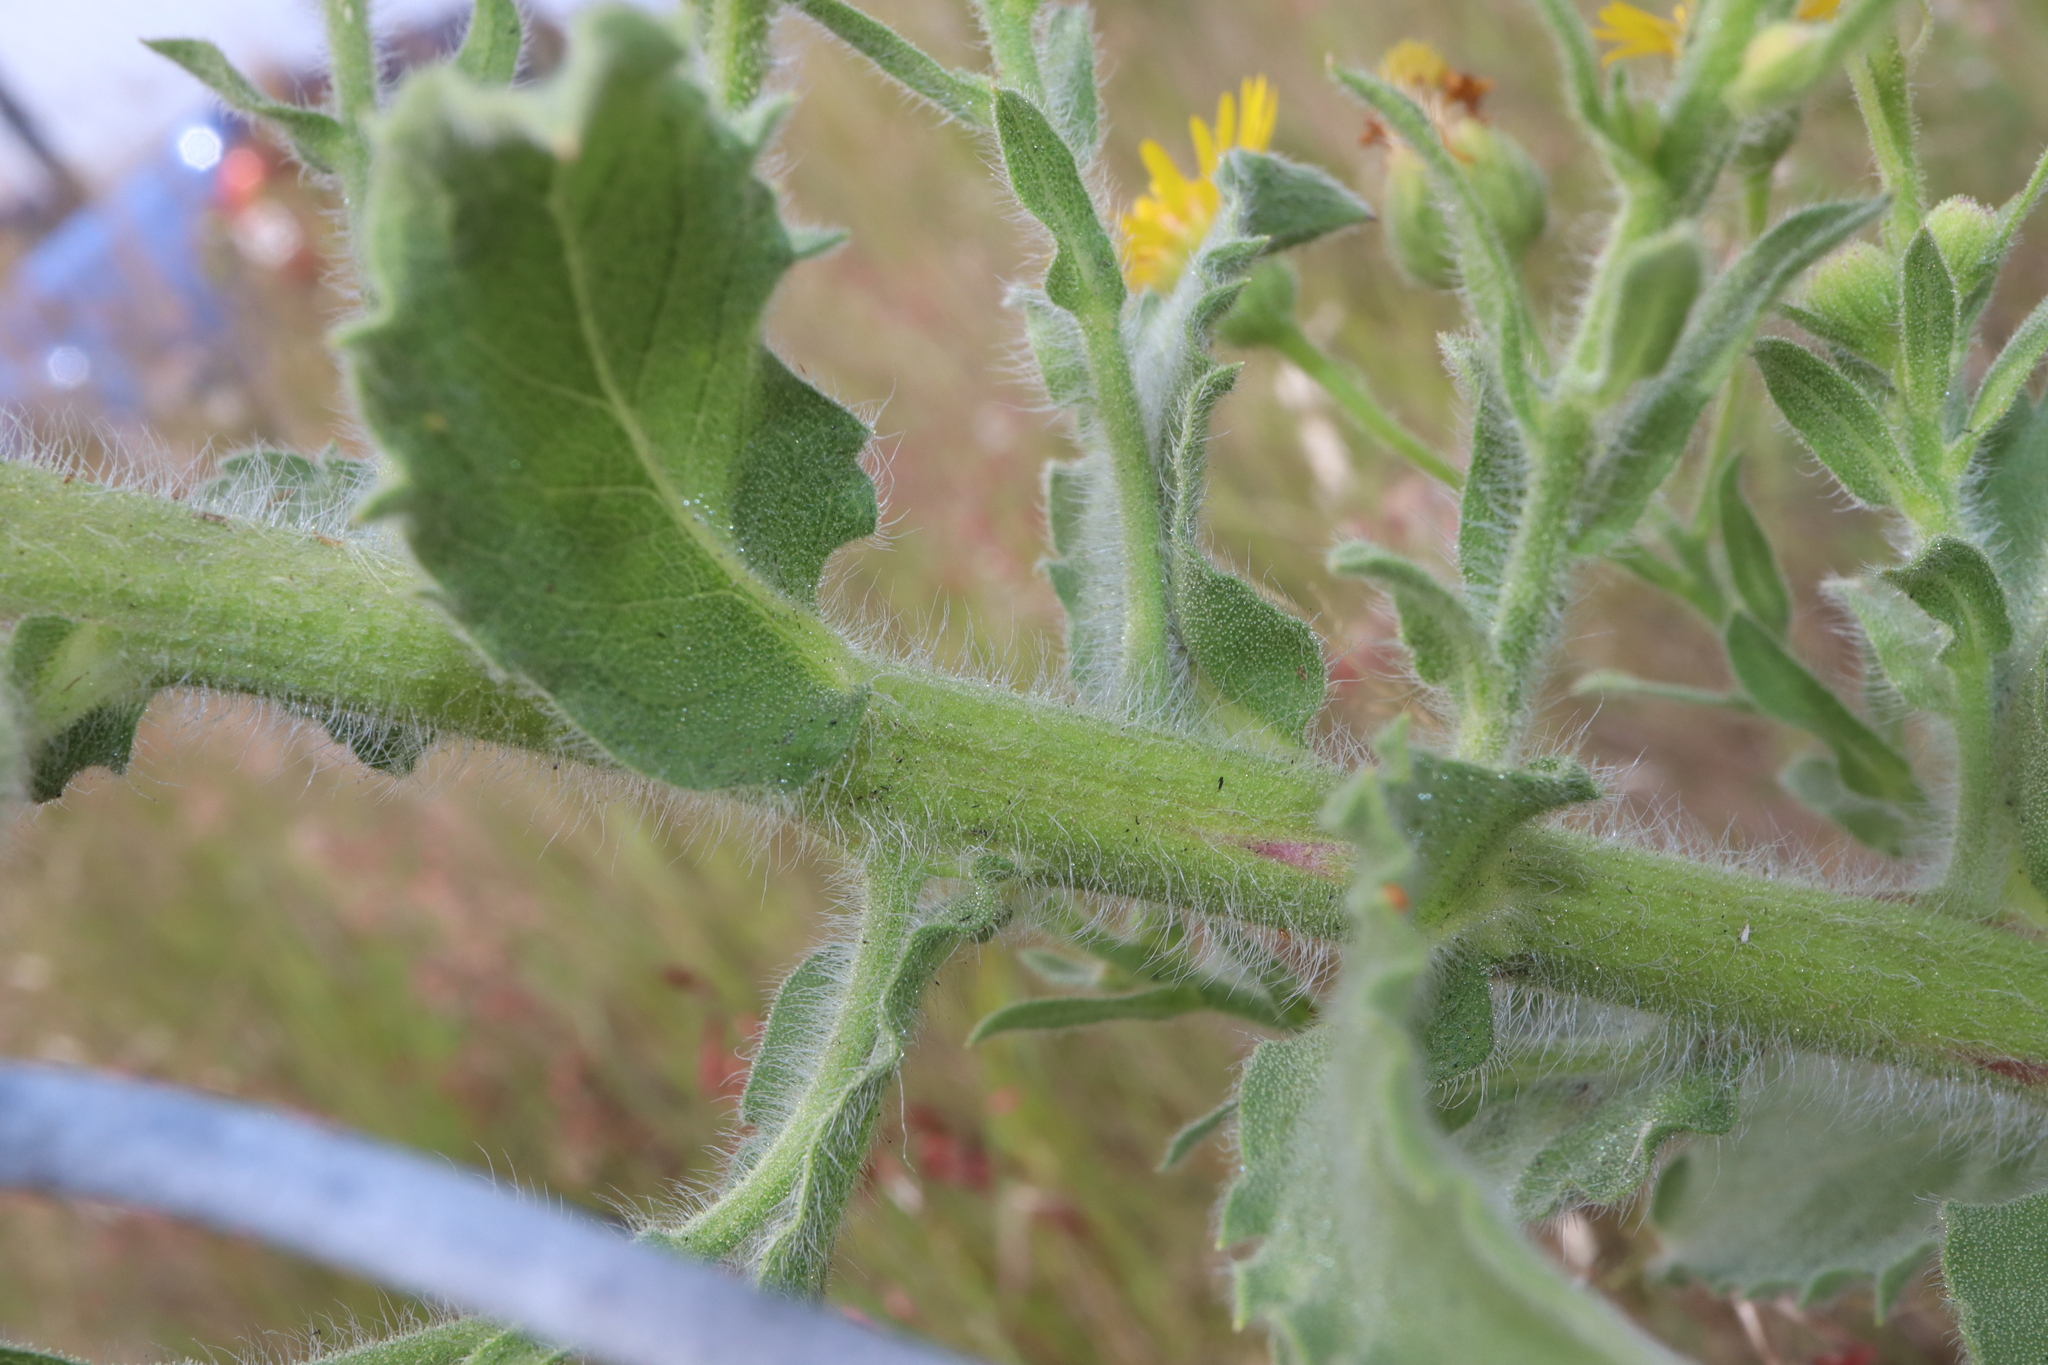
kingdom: Plantae
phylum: Tracheophyta
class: Magnoliopsida
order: Asterales
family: Asteraceae
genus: Heterotheca
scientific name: Heterotheca grandiflora
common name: Telegraphweed
